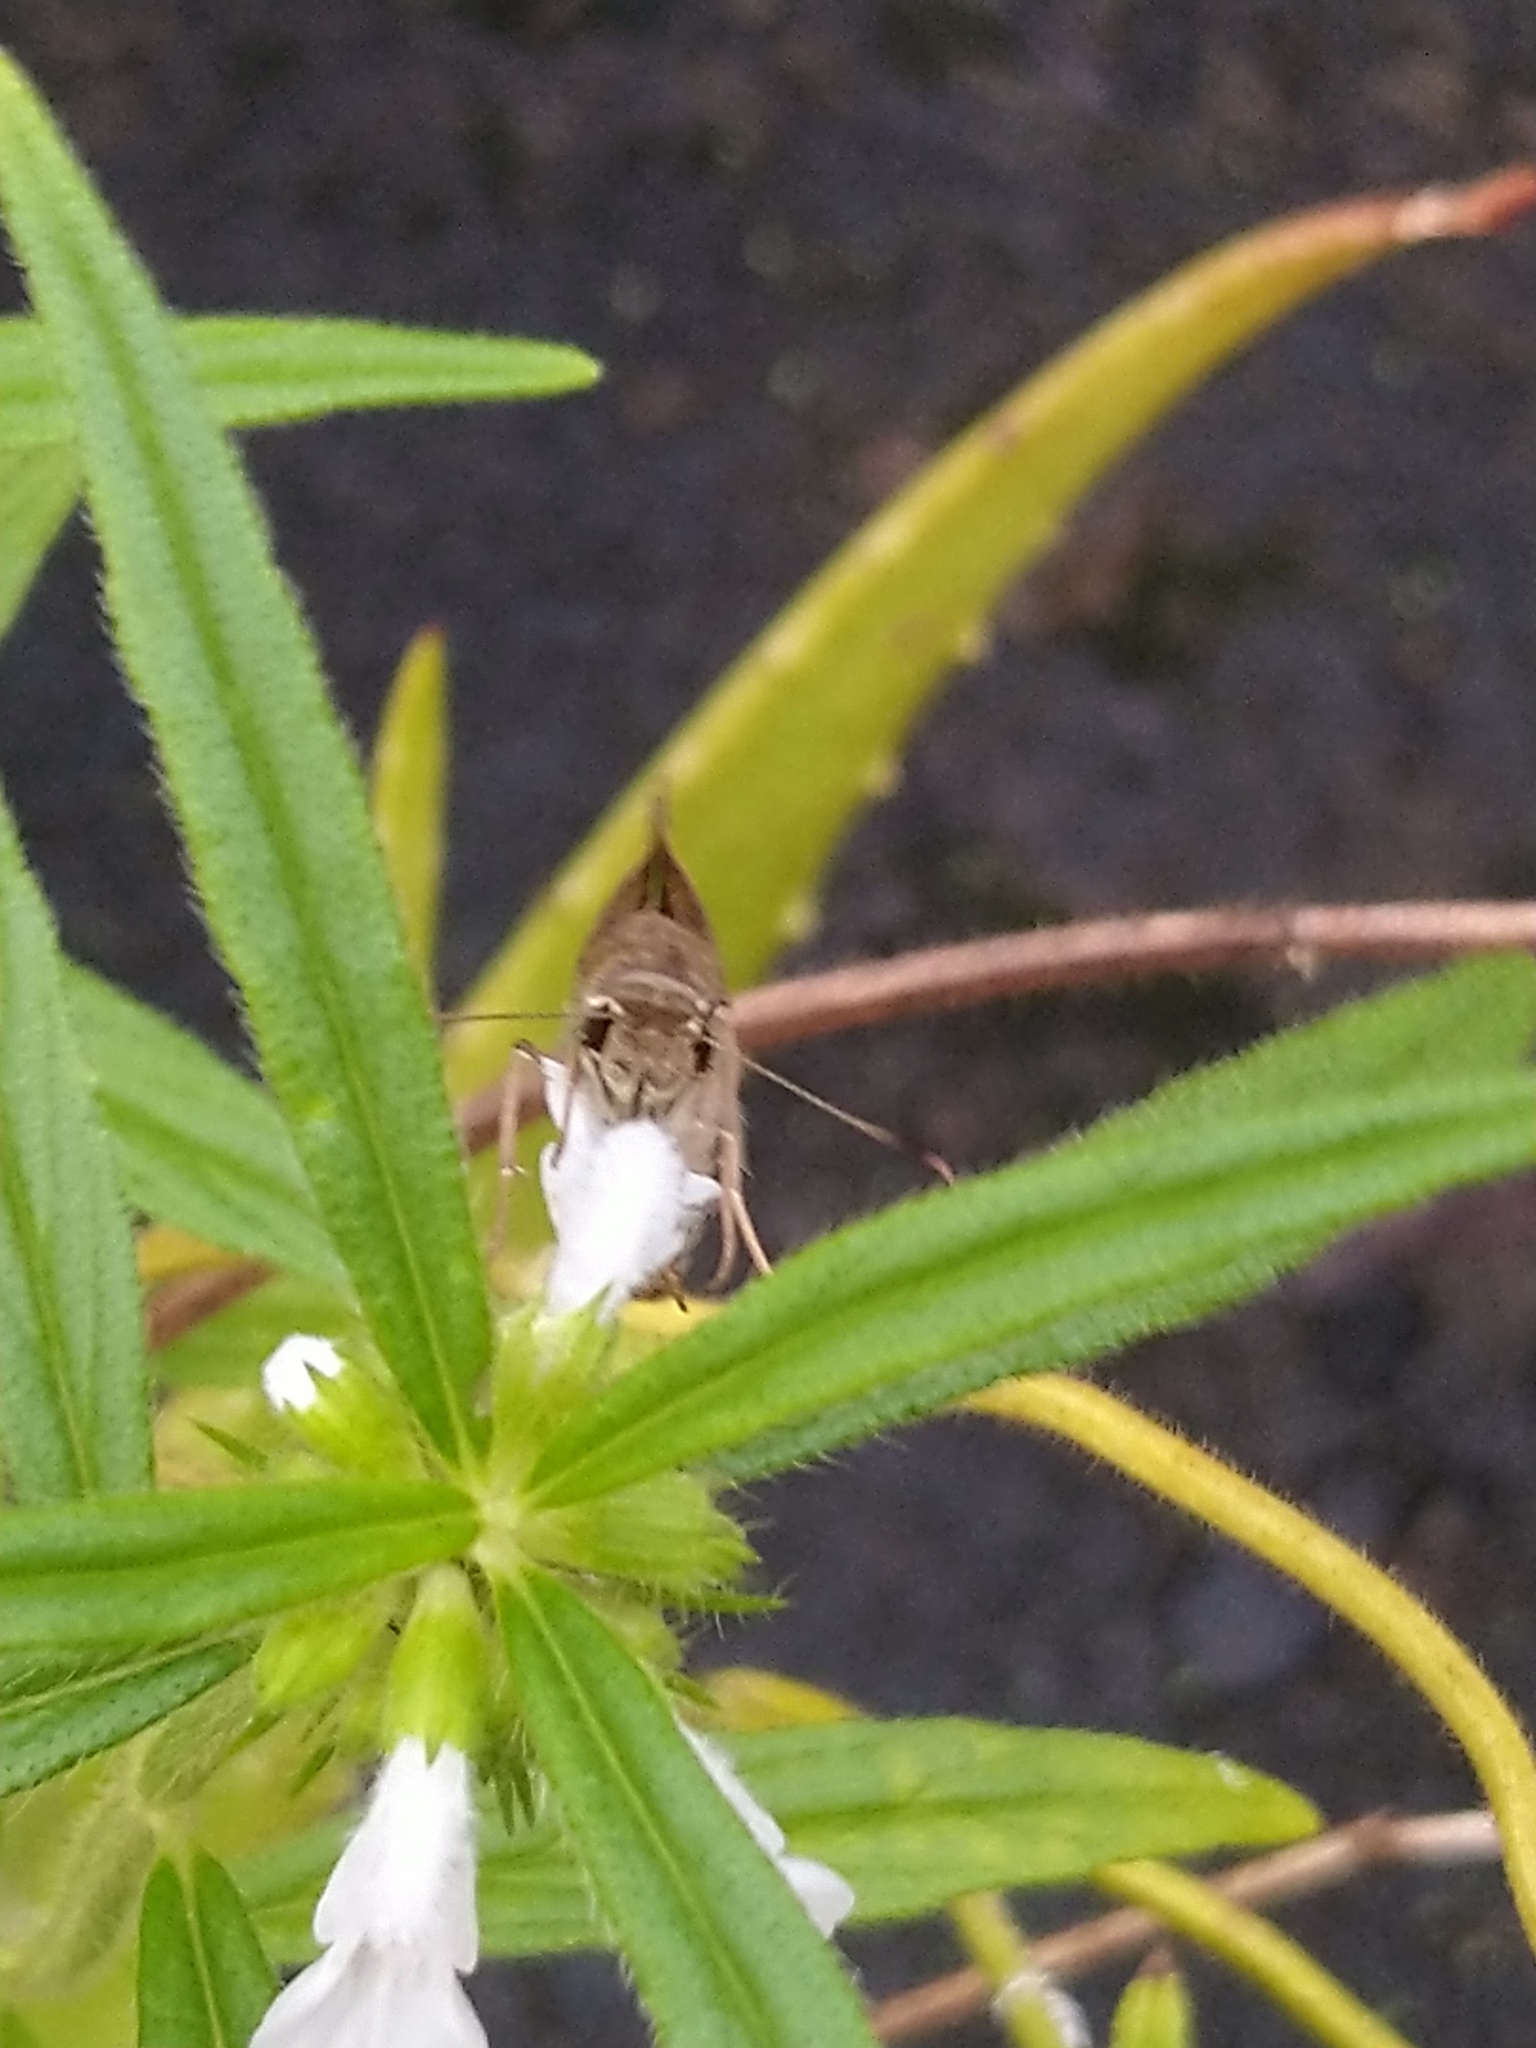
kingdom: Animalia
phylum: Arthropoda
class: Insecta
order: Lepidoptera
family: Hesperiidae
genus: Suastus
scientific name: Suastus gremius
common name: Indian palm bob
